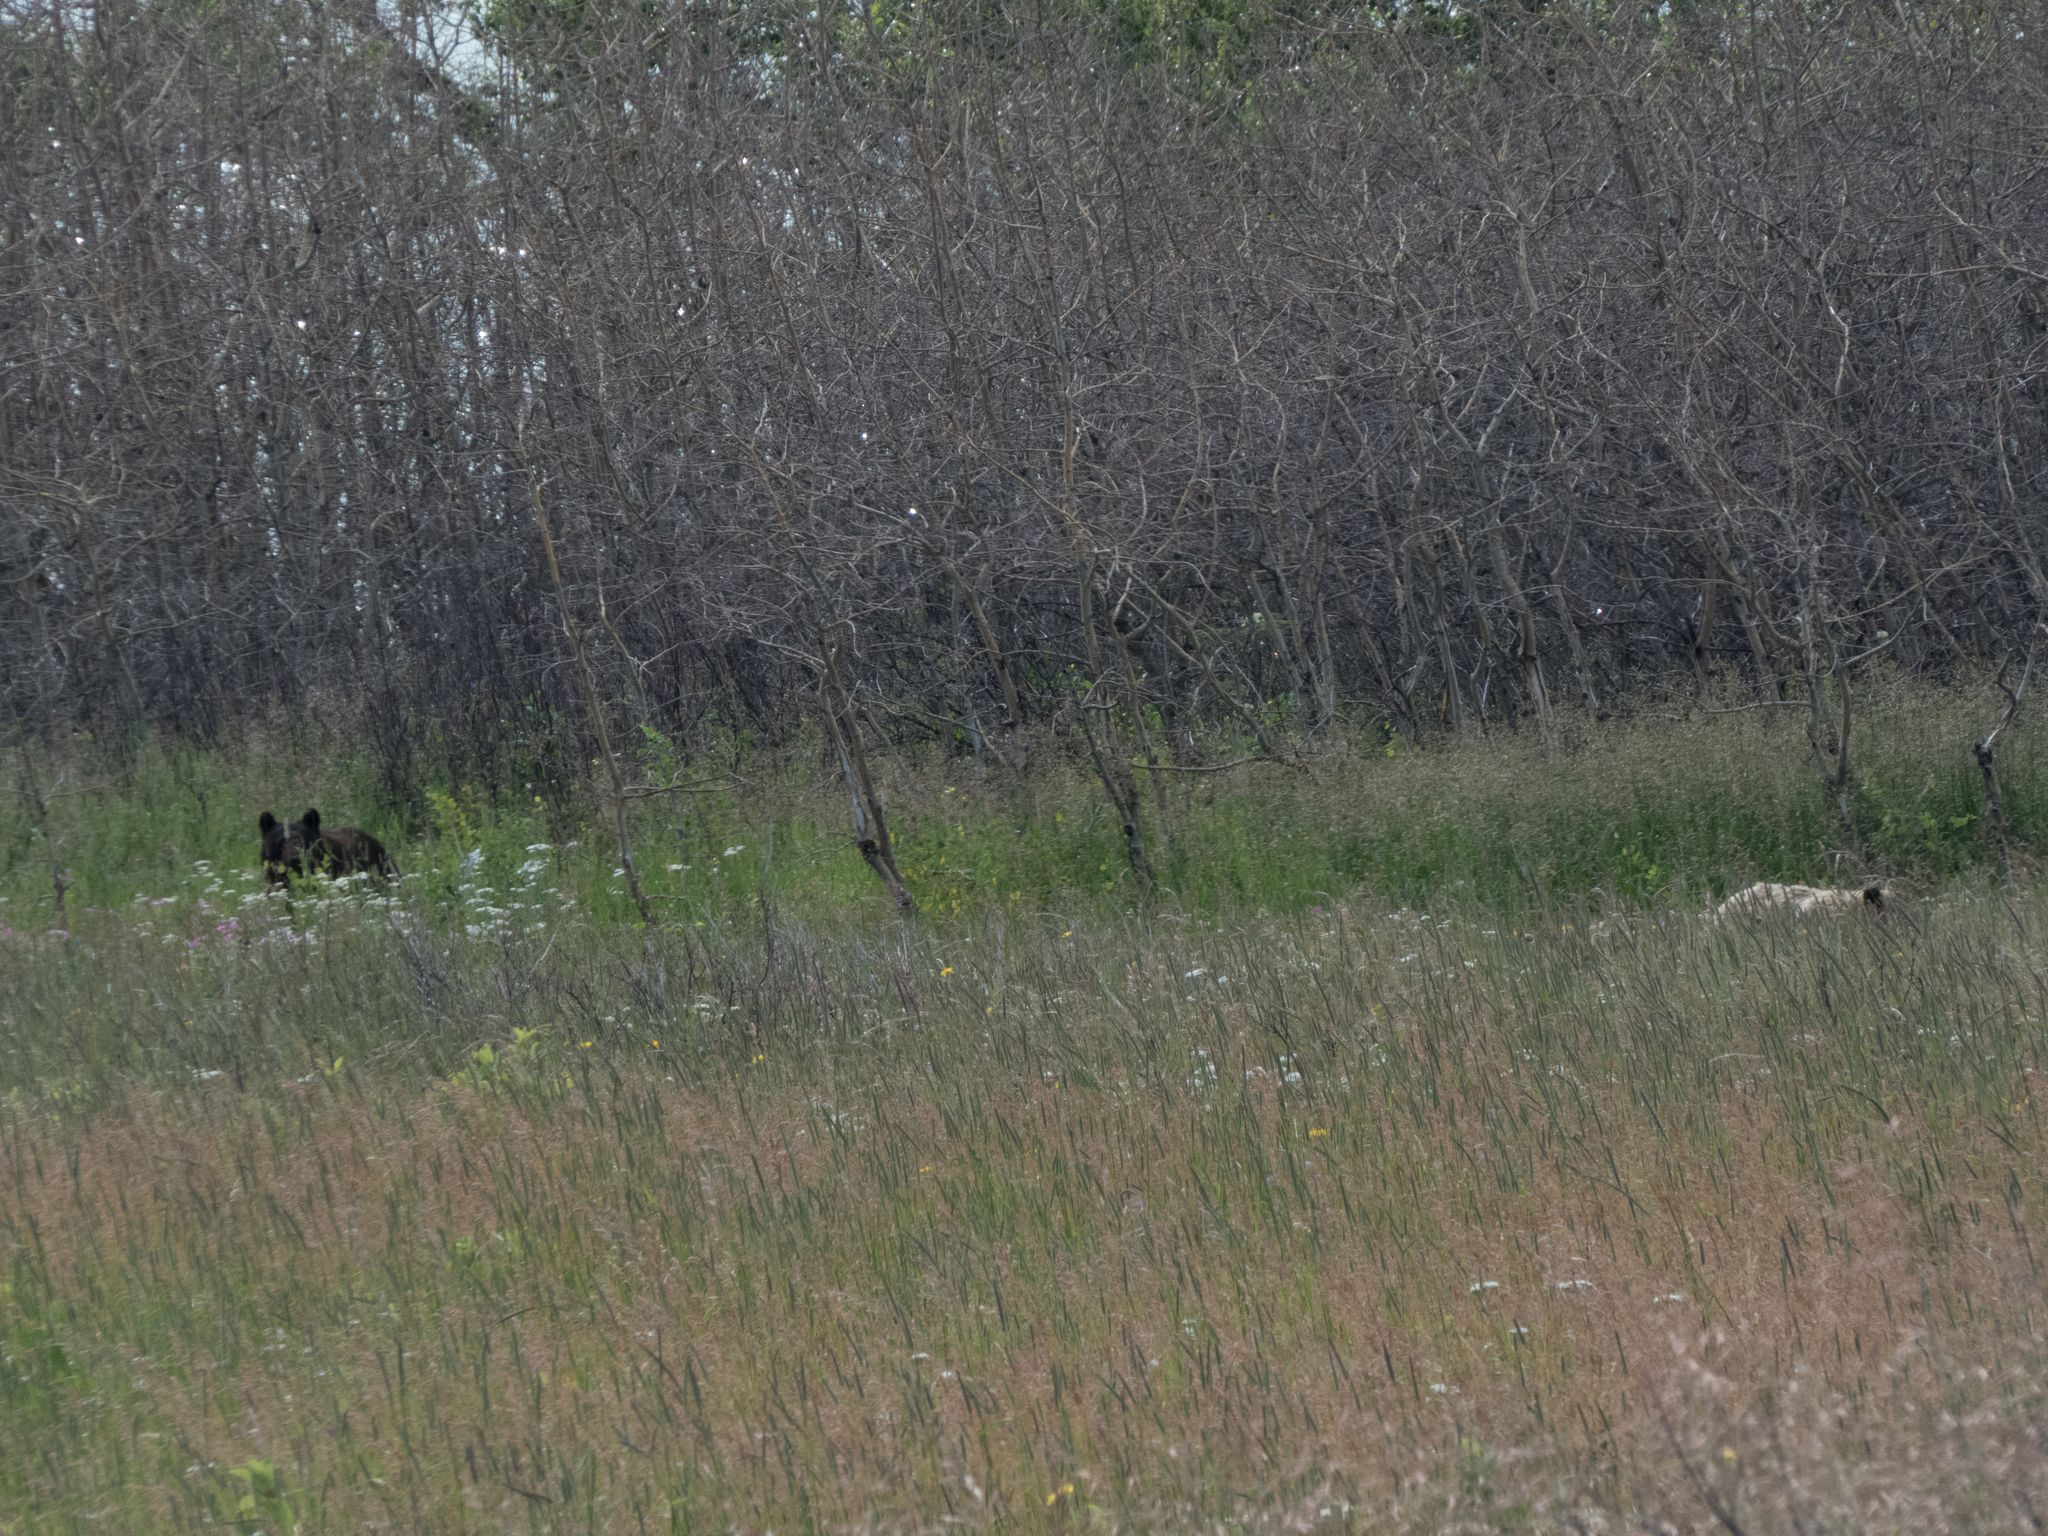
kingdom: Animalia
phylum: Chordata
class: Mammalia
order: Carnivora
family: Ursidae
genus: Ursus
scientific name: Ursus americanus
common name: American black bear
